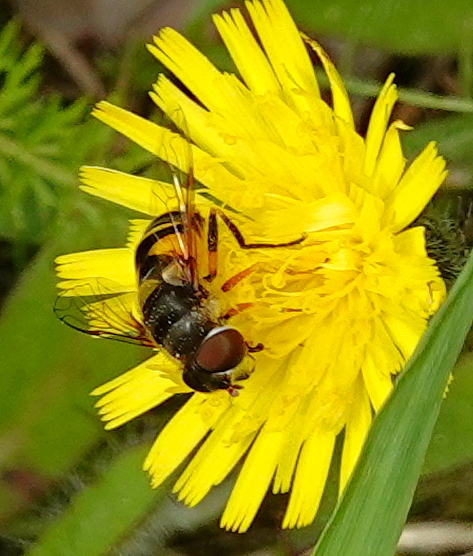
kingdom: Animalia
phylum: Arthropoda
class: Insecta
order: Diptera
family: Syrphidae
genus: Eristalis
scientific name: Eristalis transversa
